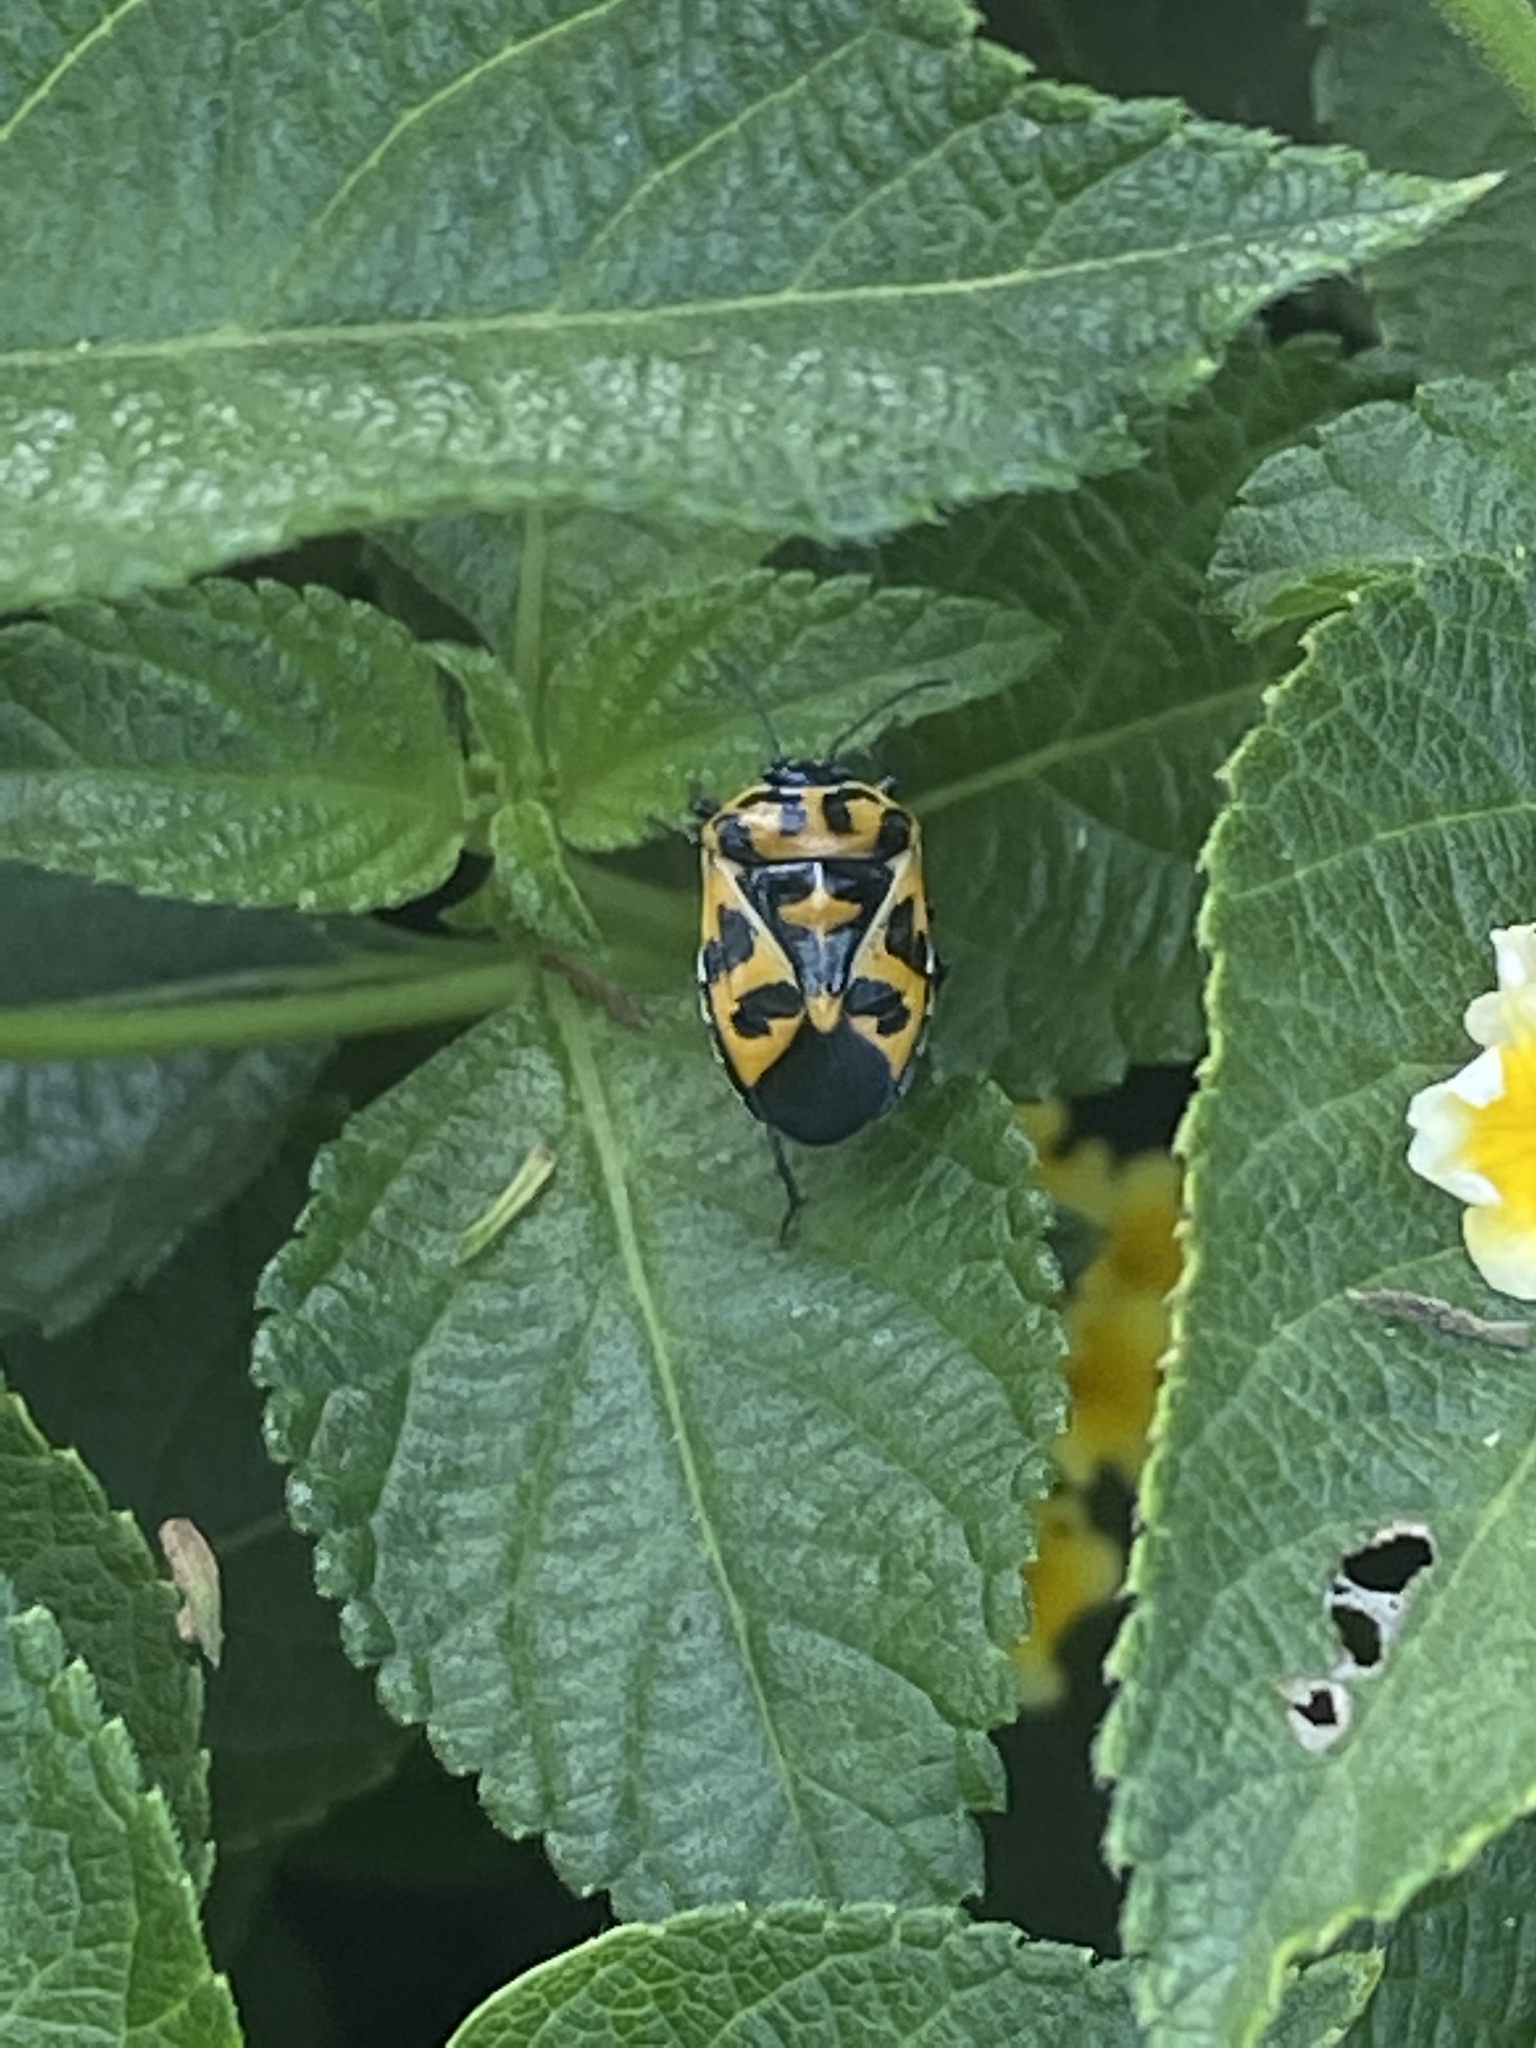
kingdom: Animalia
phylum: Arthropoda
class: Insecta
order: Hemiptera
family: Pentatomidae
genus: Murgantia
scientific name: Murgantia histrionica
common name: Harlequin bug
